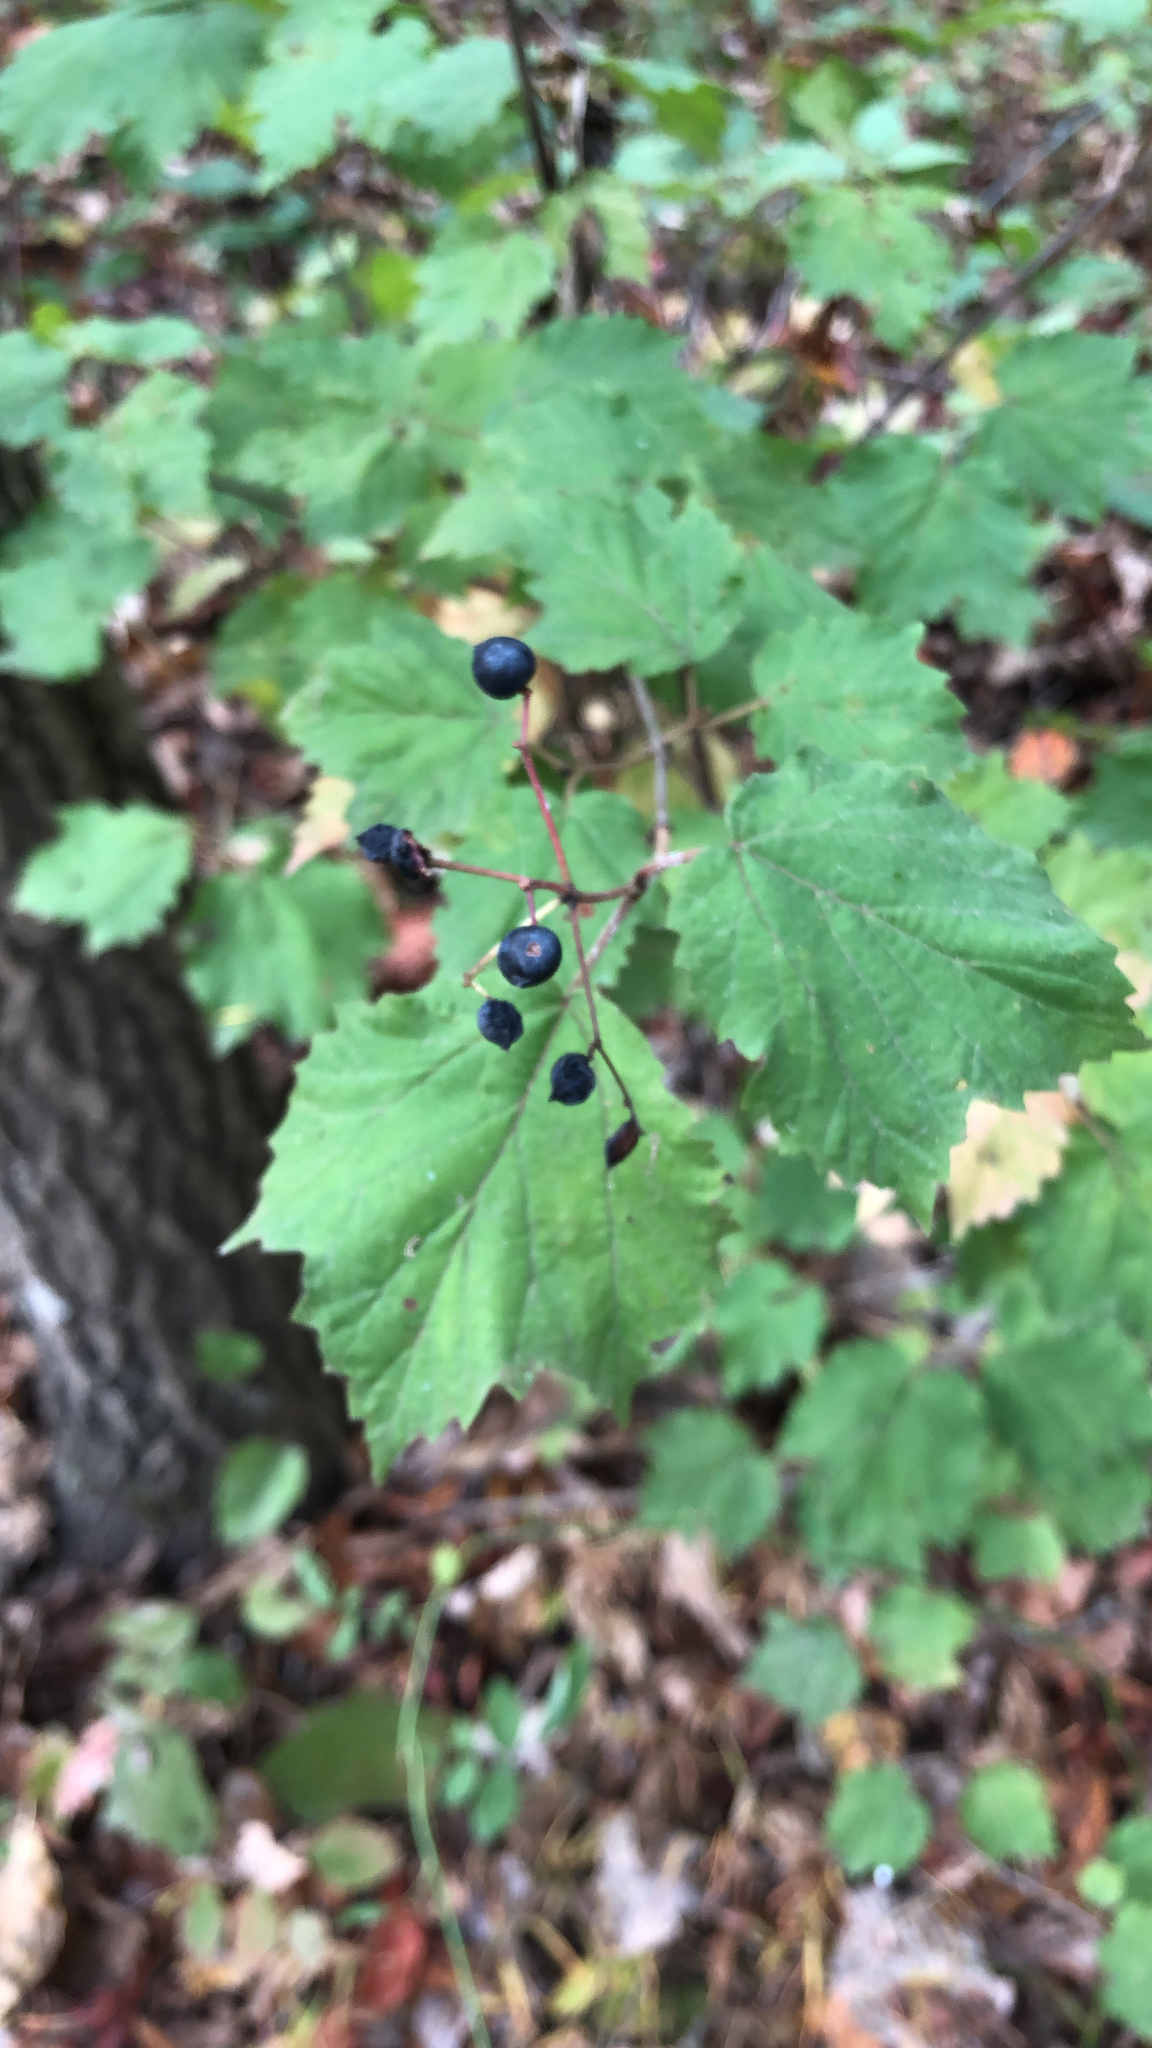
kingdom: Plantae
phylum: Tracheophyta
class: Magnoliopsida
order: Dipsacales
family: Viburnaceae
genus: Viburnum
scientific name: Viburnum acerifolium
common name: Dockmackie
